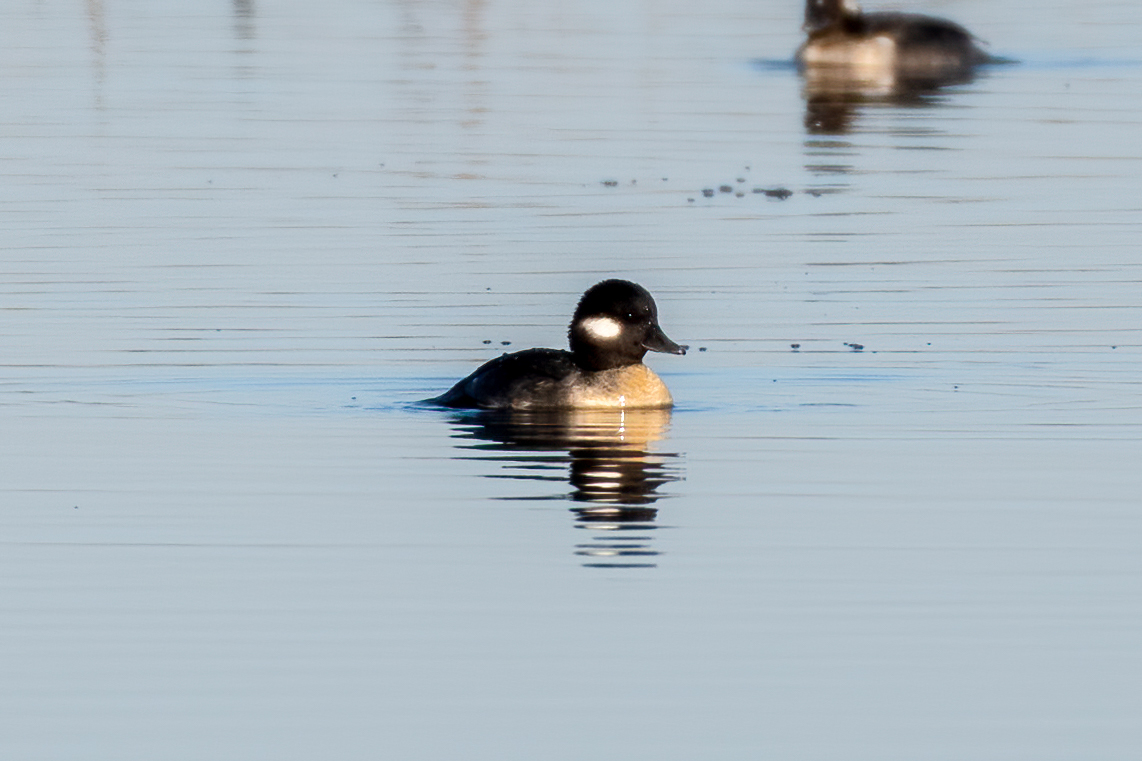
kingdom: Animalia
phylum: Chordata
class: Aves
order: Anseriformes
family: Anatidae
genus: Bucephala
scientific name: Bucephala albeola
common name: Bufflehead
